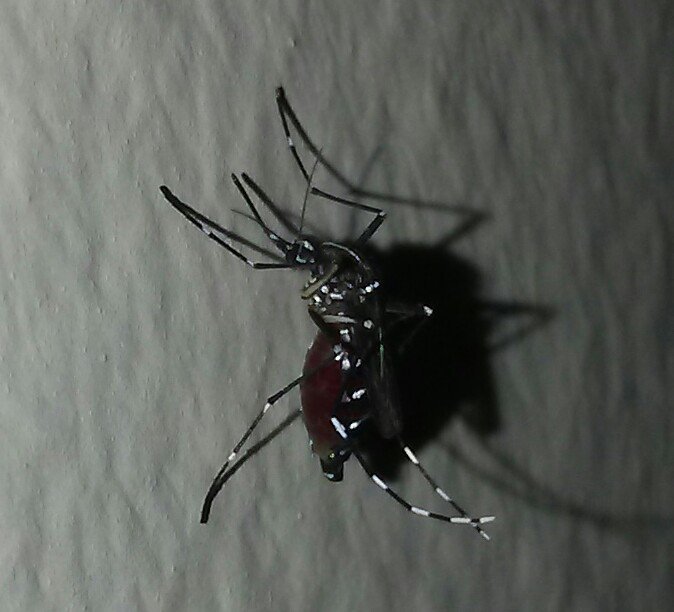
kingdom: Animalia
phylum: Arthropoda
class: Insecta
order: Diptera
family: Culicidae
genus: Aedes
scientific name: Aedes albopictus
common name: Tiger mosquito
